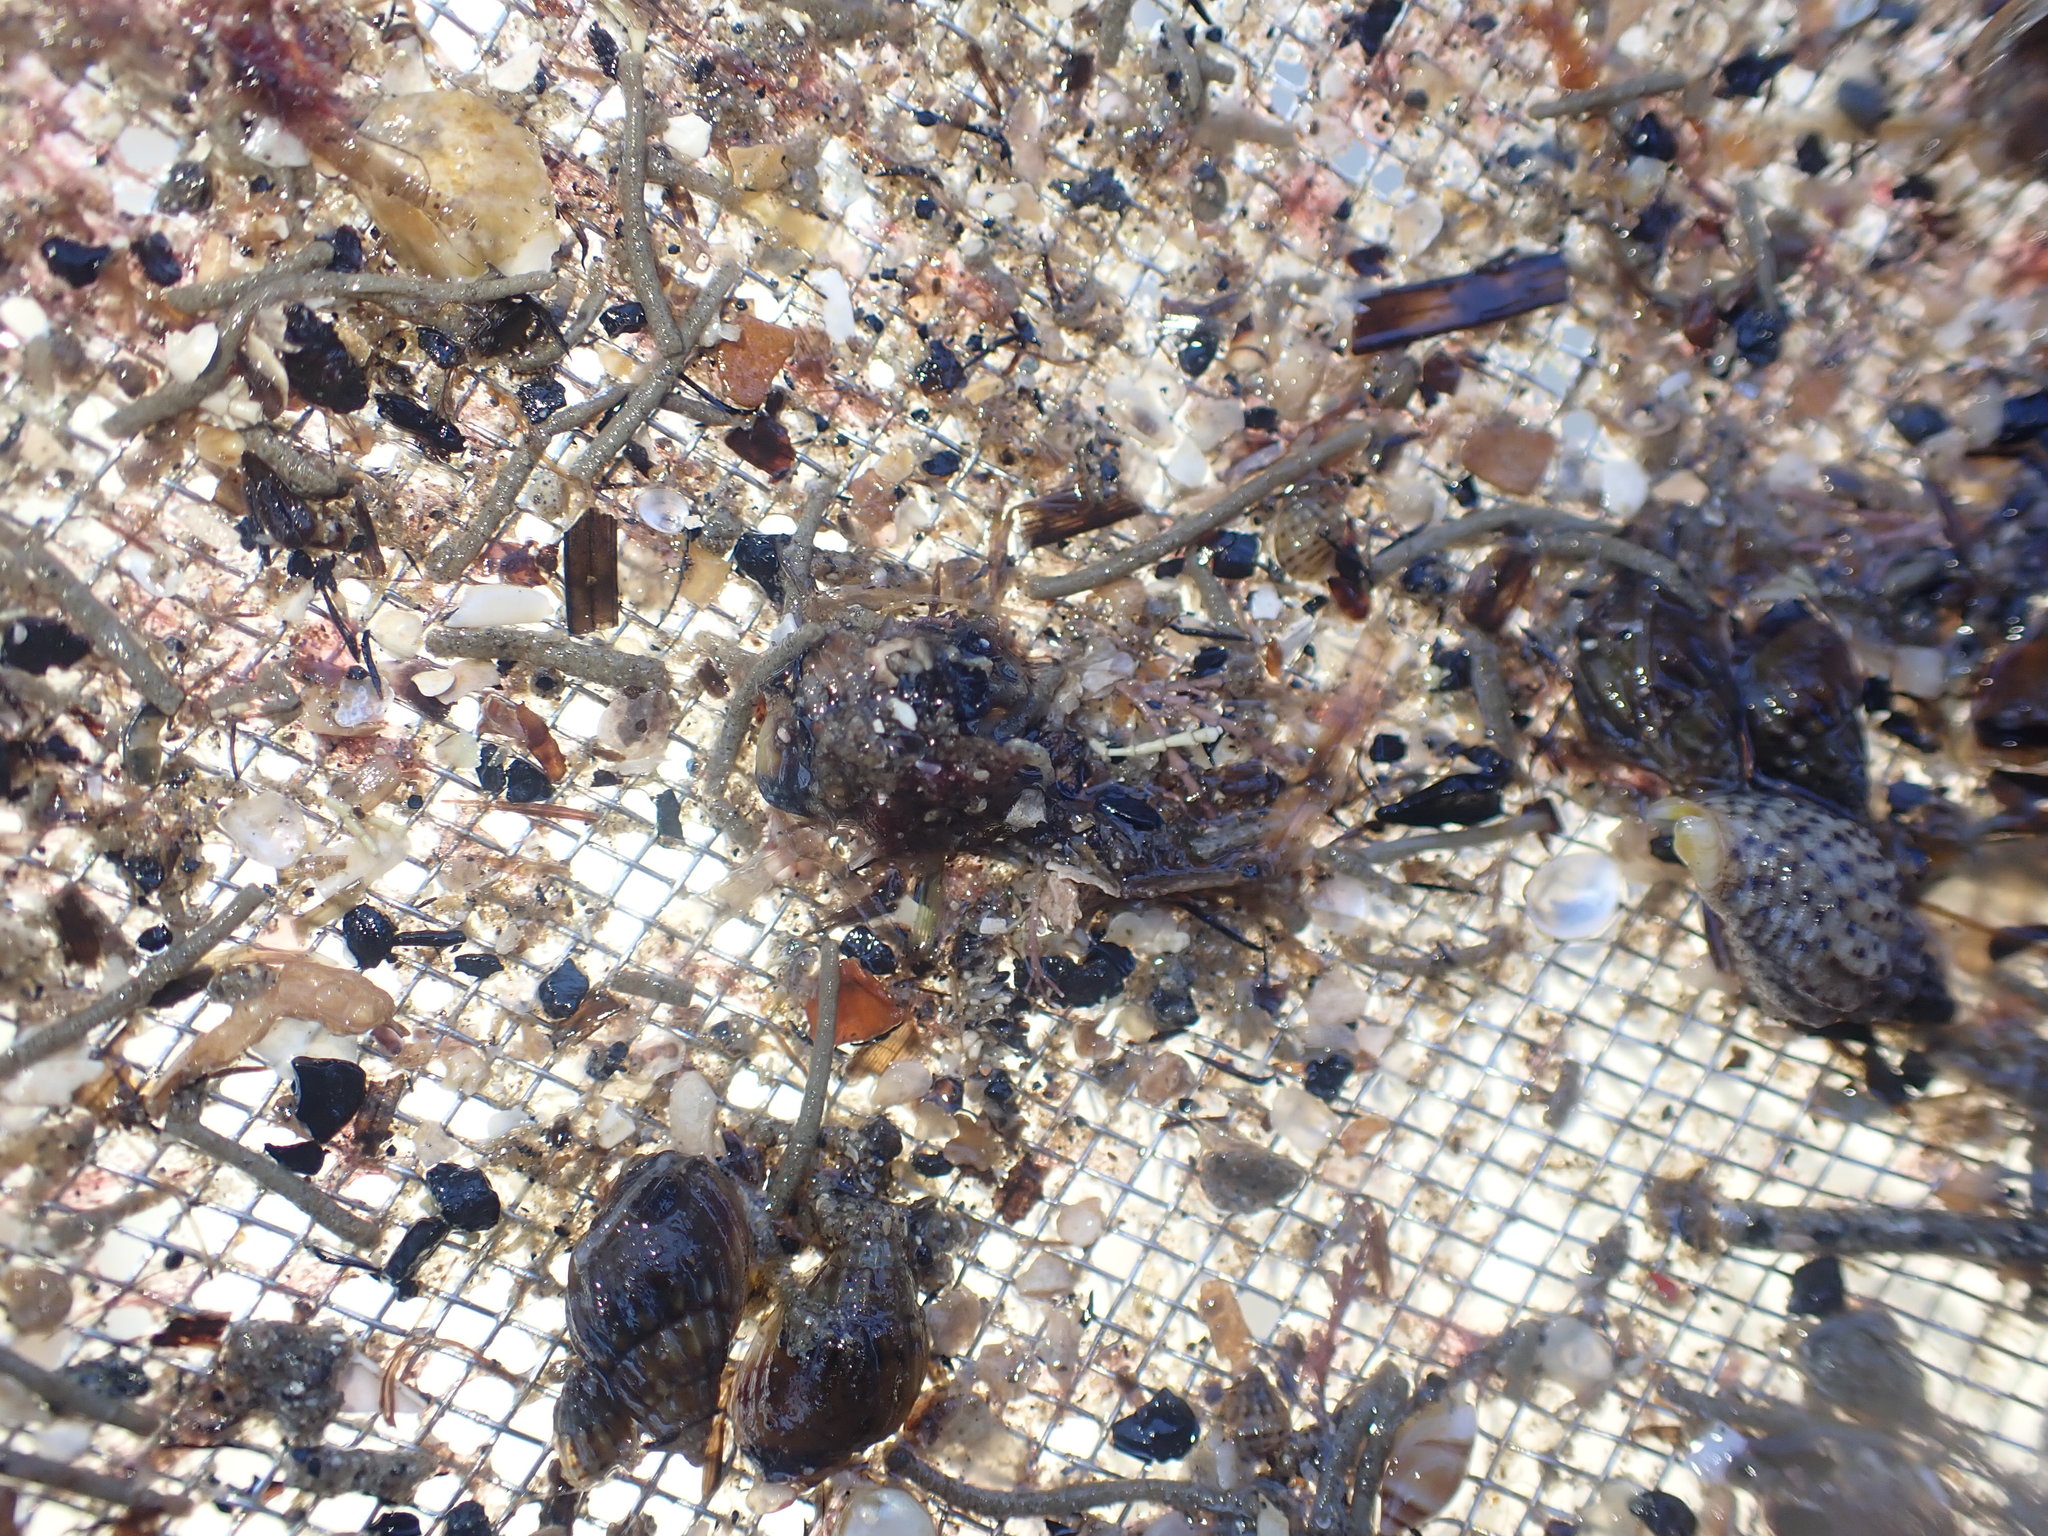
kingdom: Animalia
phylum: Mollusca
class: Gastropoda
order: Neogastropoda
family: Nassariidae
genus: Tritia
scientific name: Tritia burchardi
